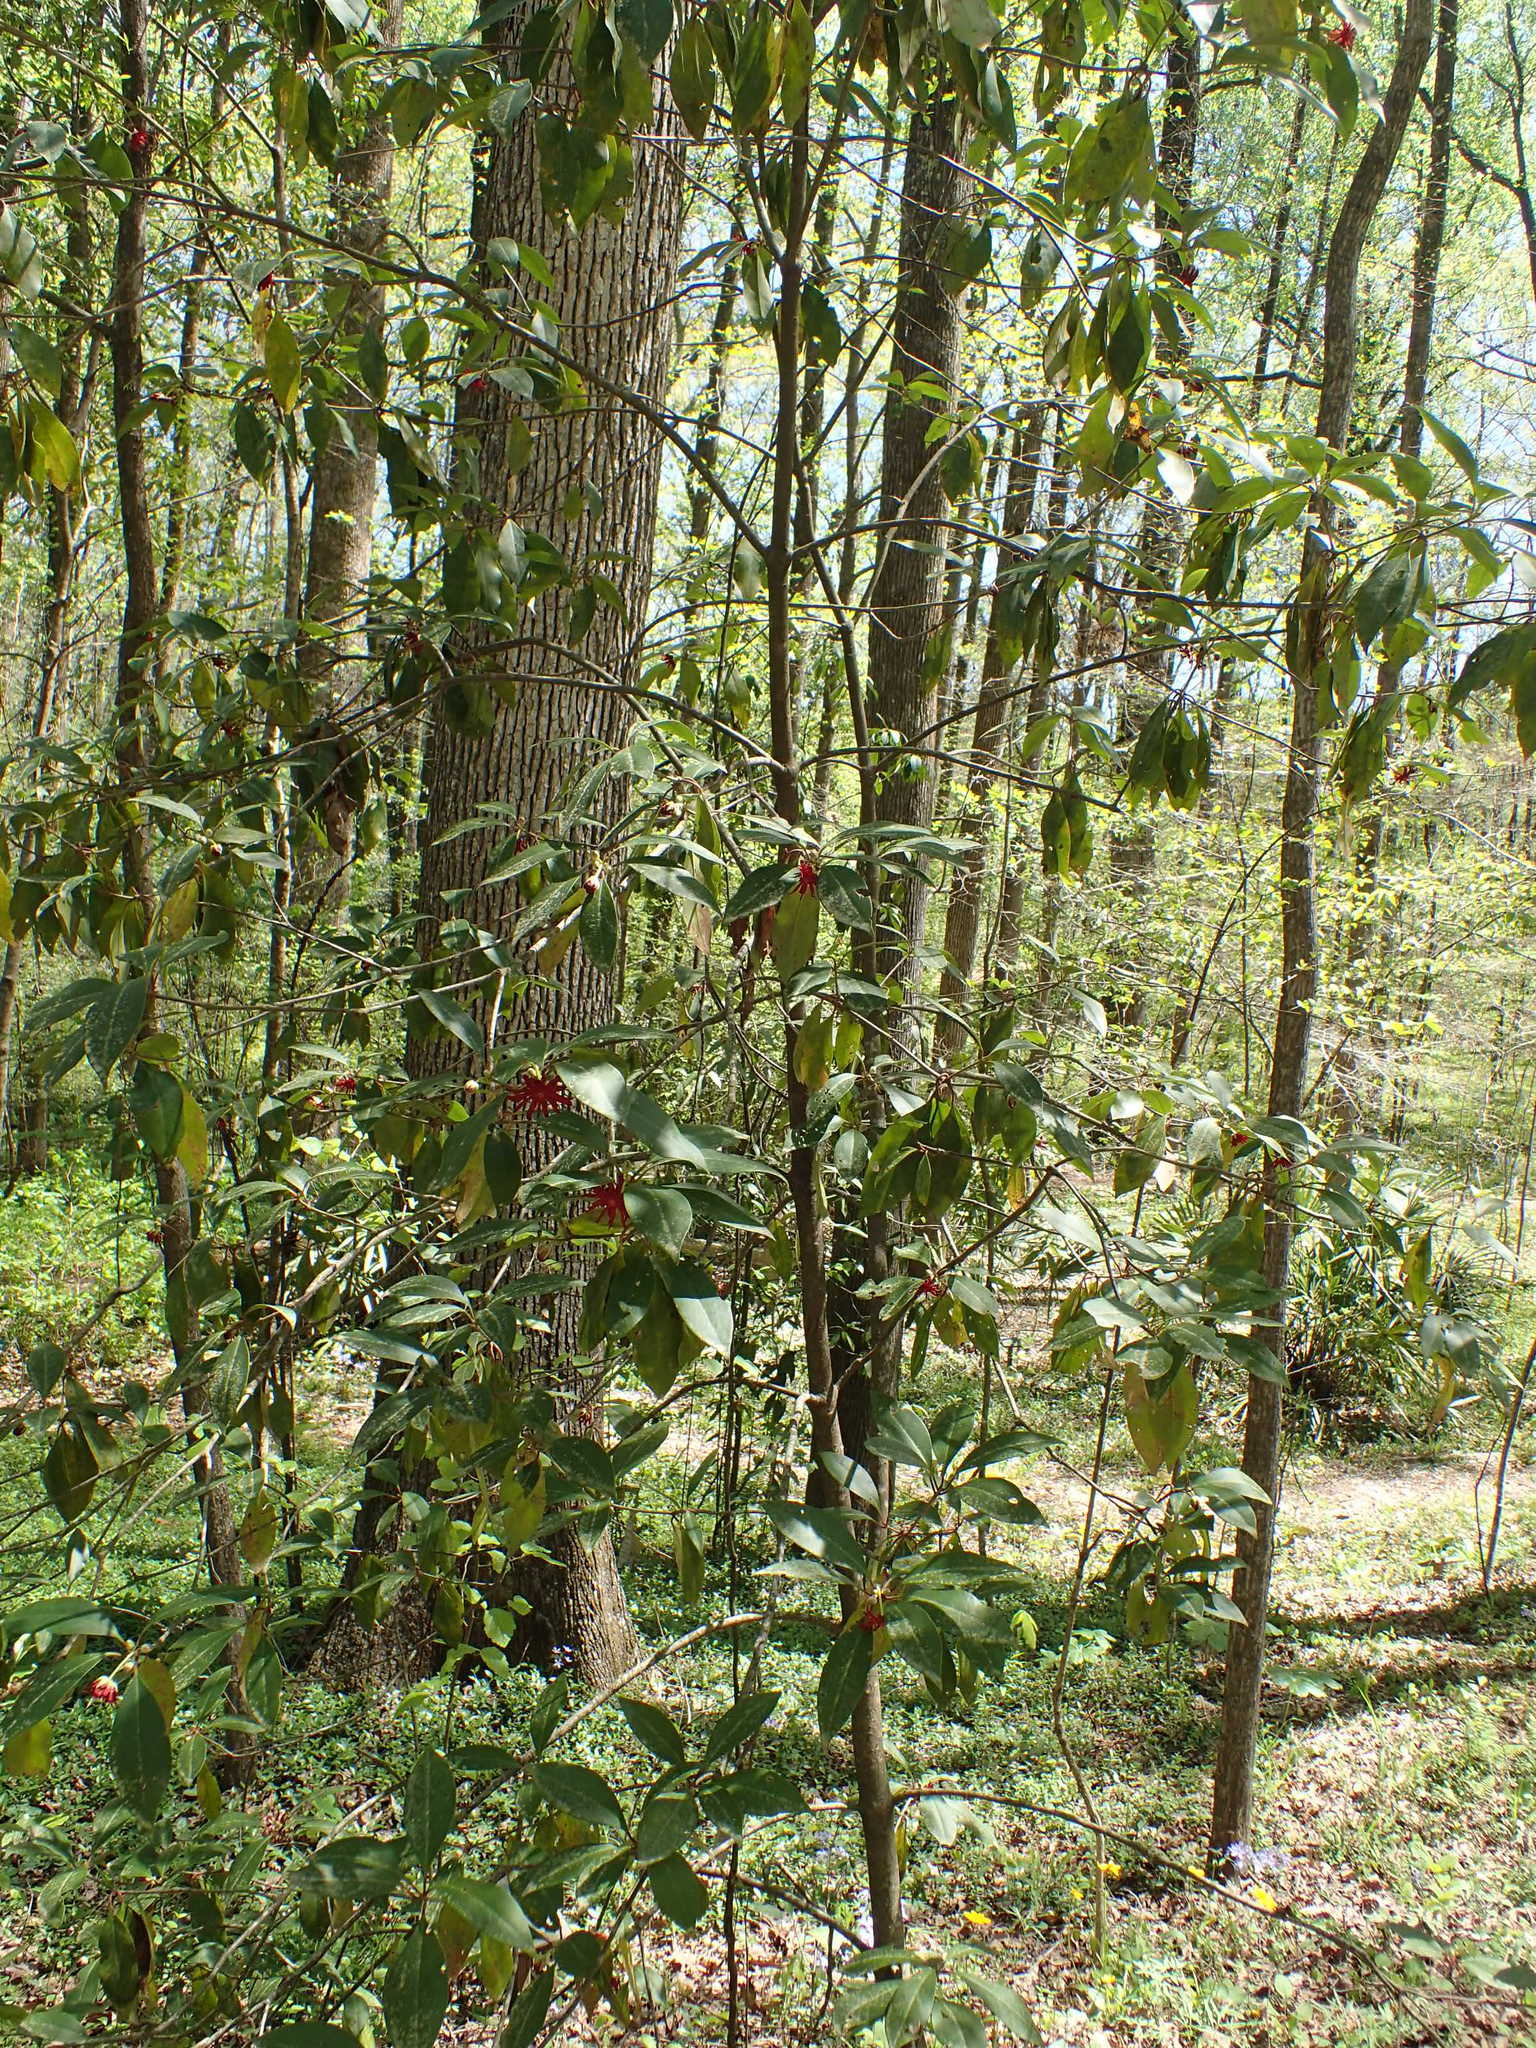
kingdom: Plantae
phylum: Tracheophyta
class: Magnoliopsida
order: Austrobaileyales
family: Schisandraceae
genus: Illicium
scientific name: Illicium floridanum
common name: Florida anisetree
